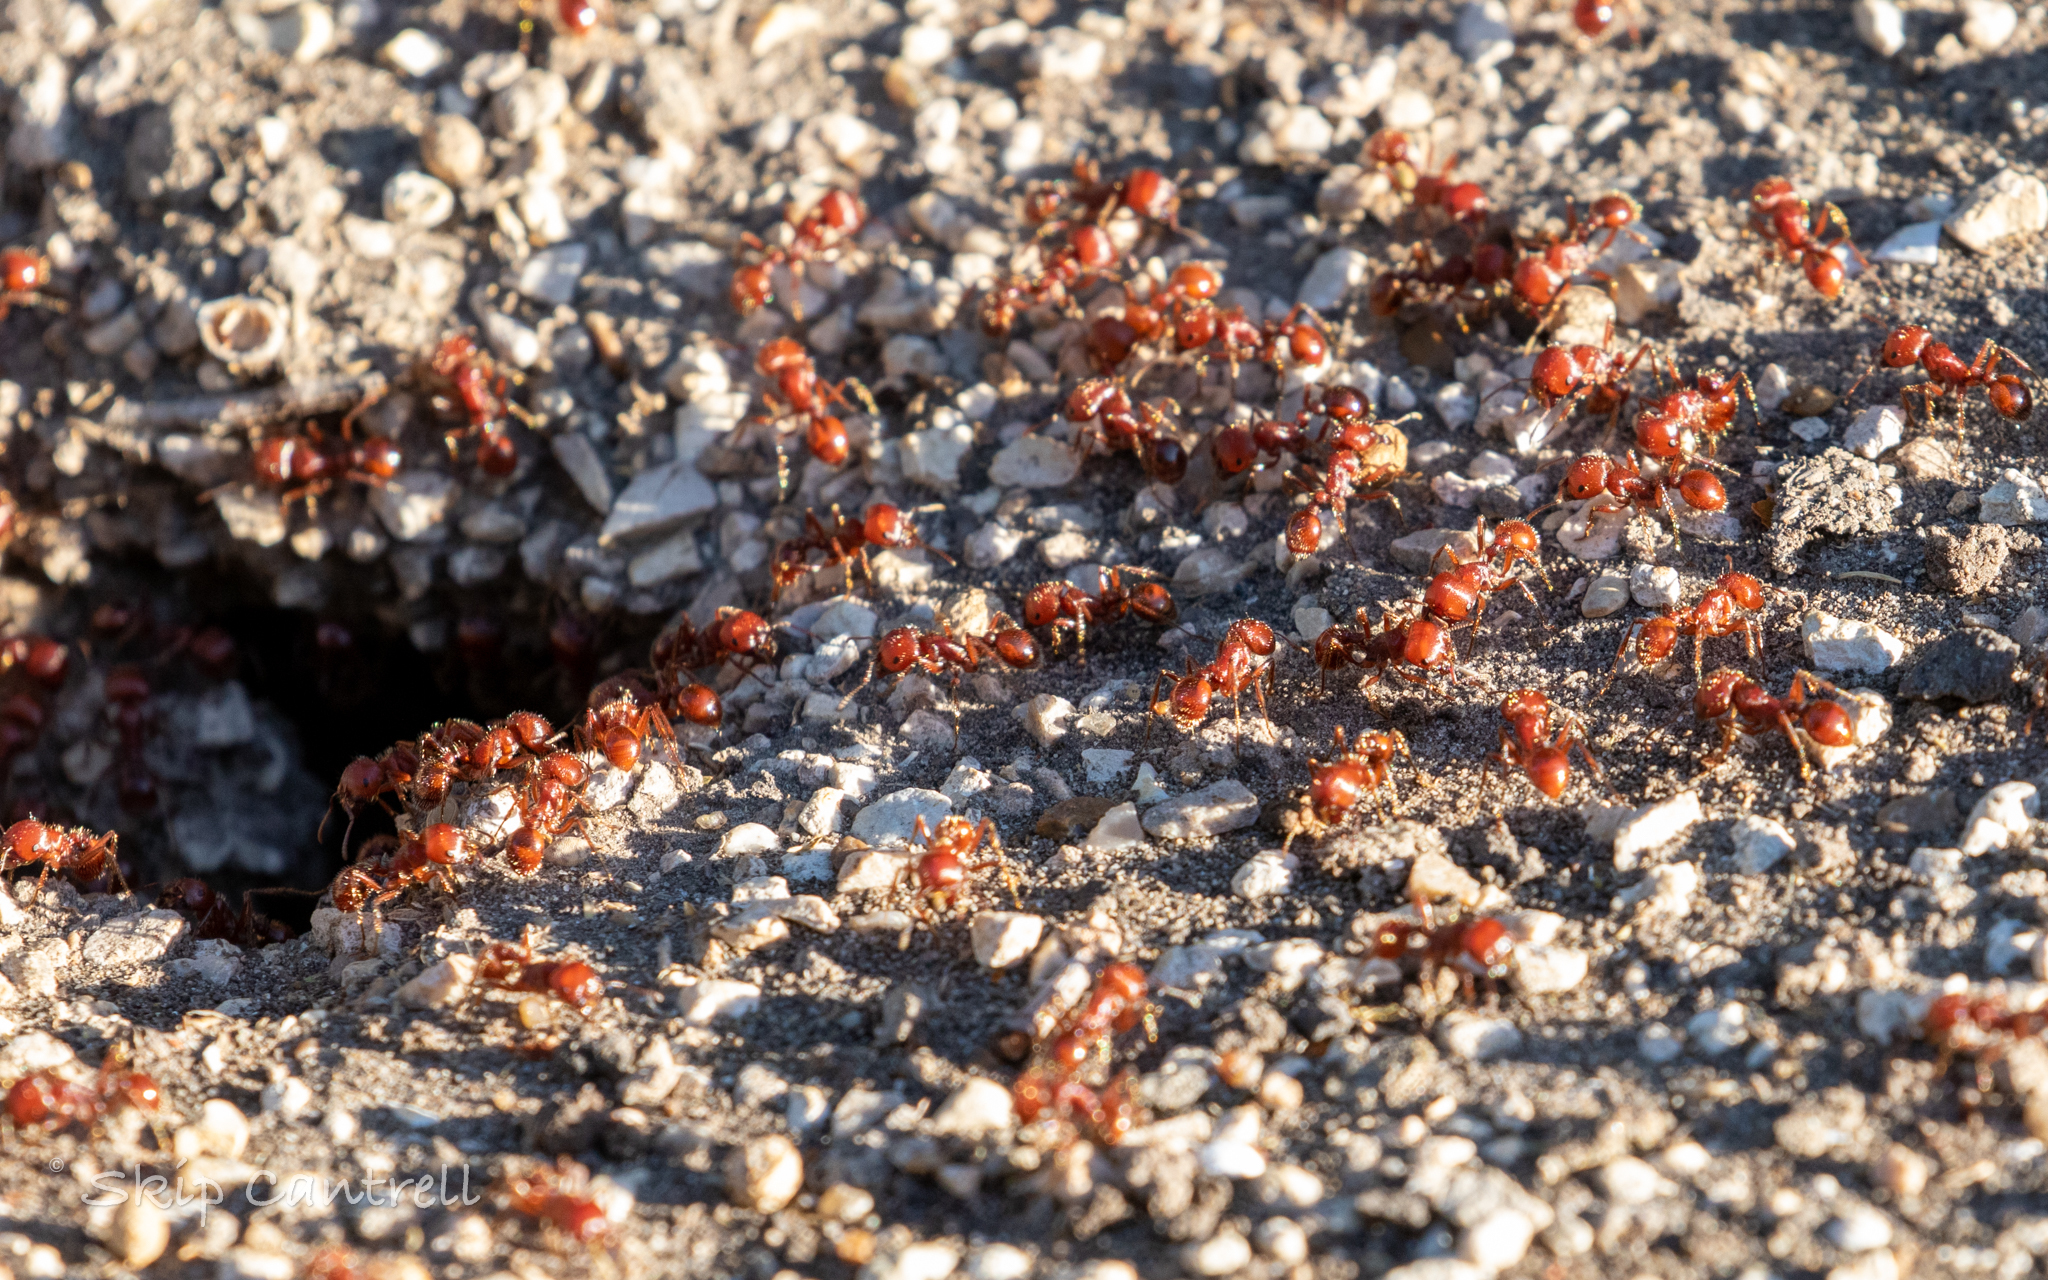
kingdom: Animalia
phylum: Arthropoda
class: Insecta
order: Hymenoptera
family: Formicidae
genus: Pogonomyrmex
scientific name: Pogonomyrmex barbatus
